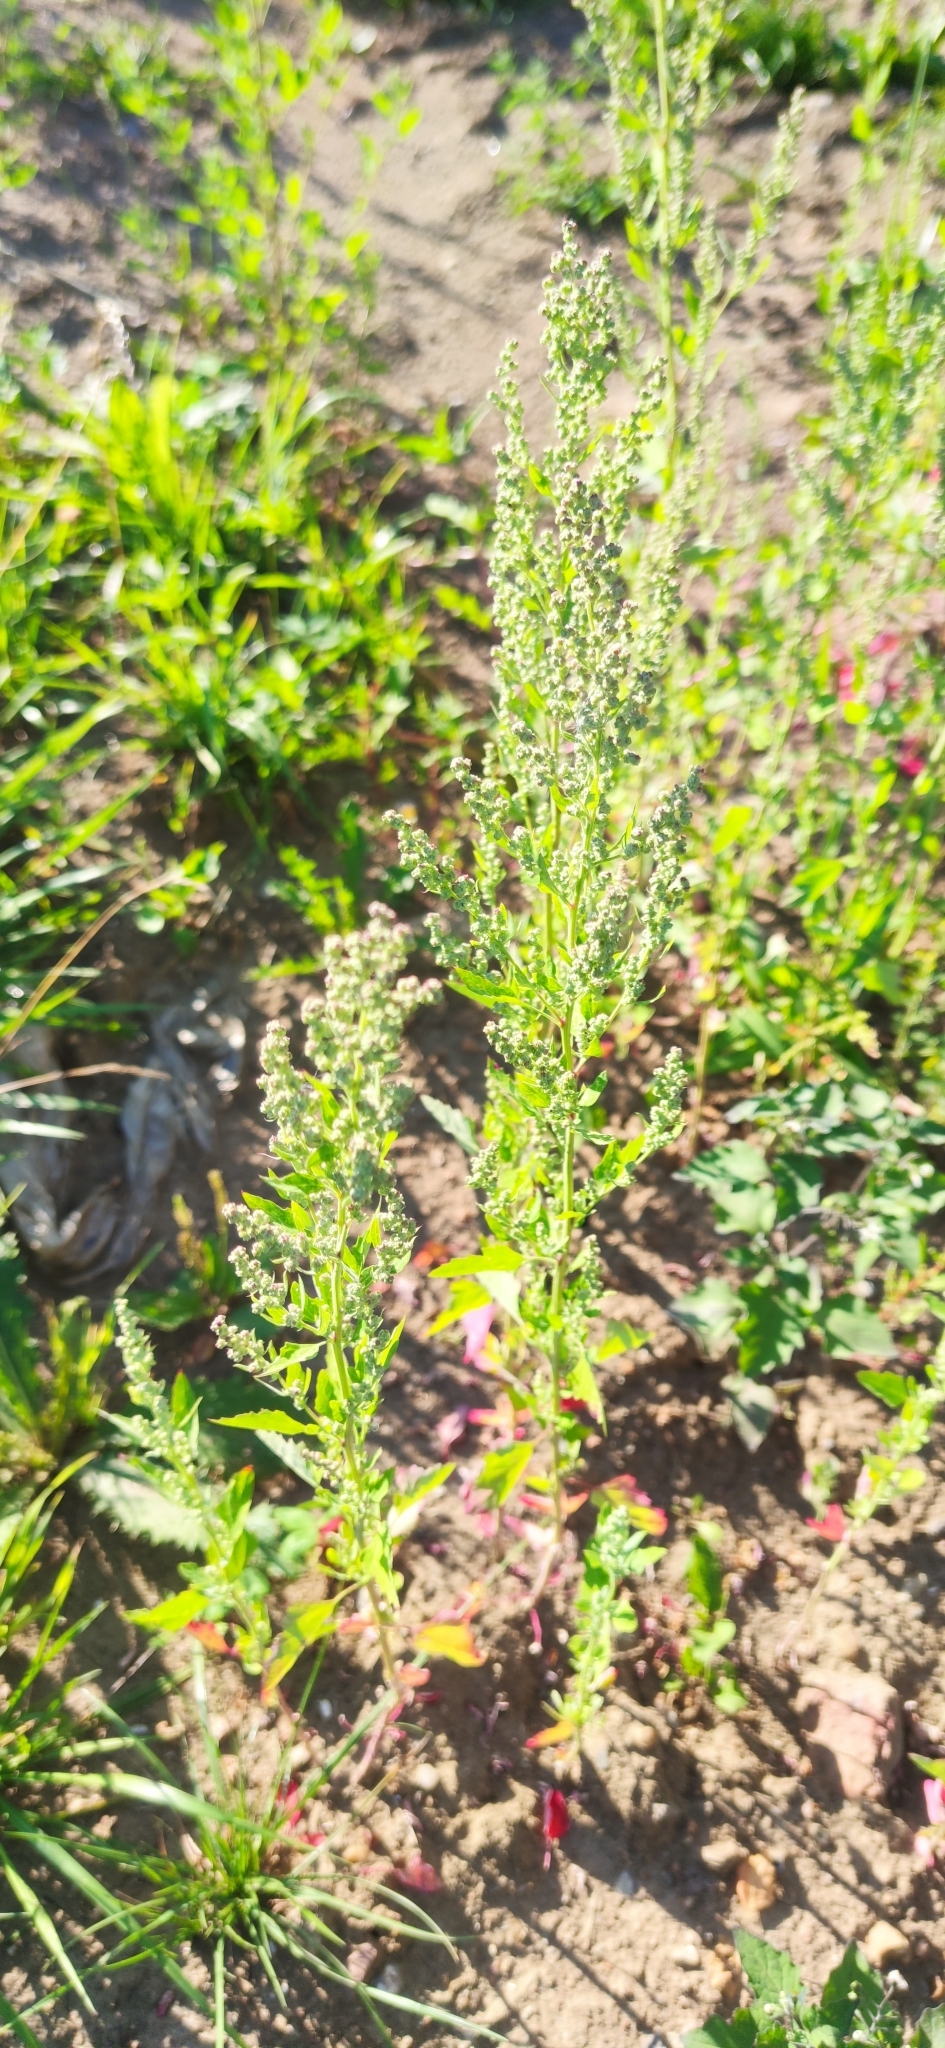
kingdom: Plantae
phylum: Tracheophyta
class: Magnoliopsida
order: Caryophyllales
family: Amaranthaceae
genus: Chenopodium
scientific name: Chenopodium album
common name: Fat-hen
